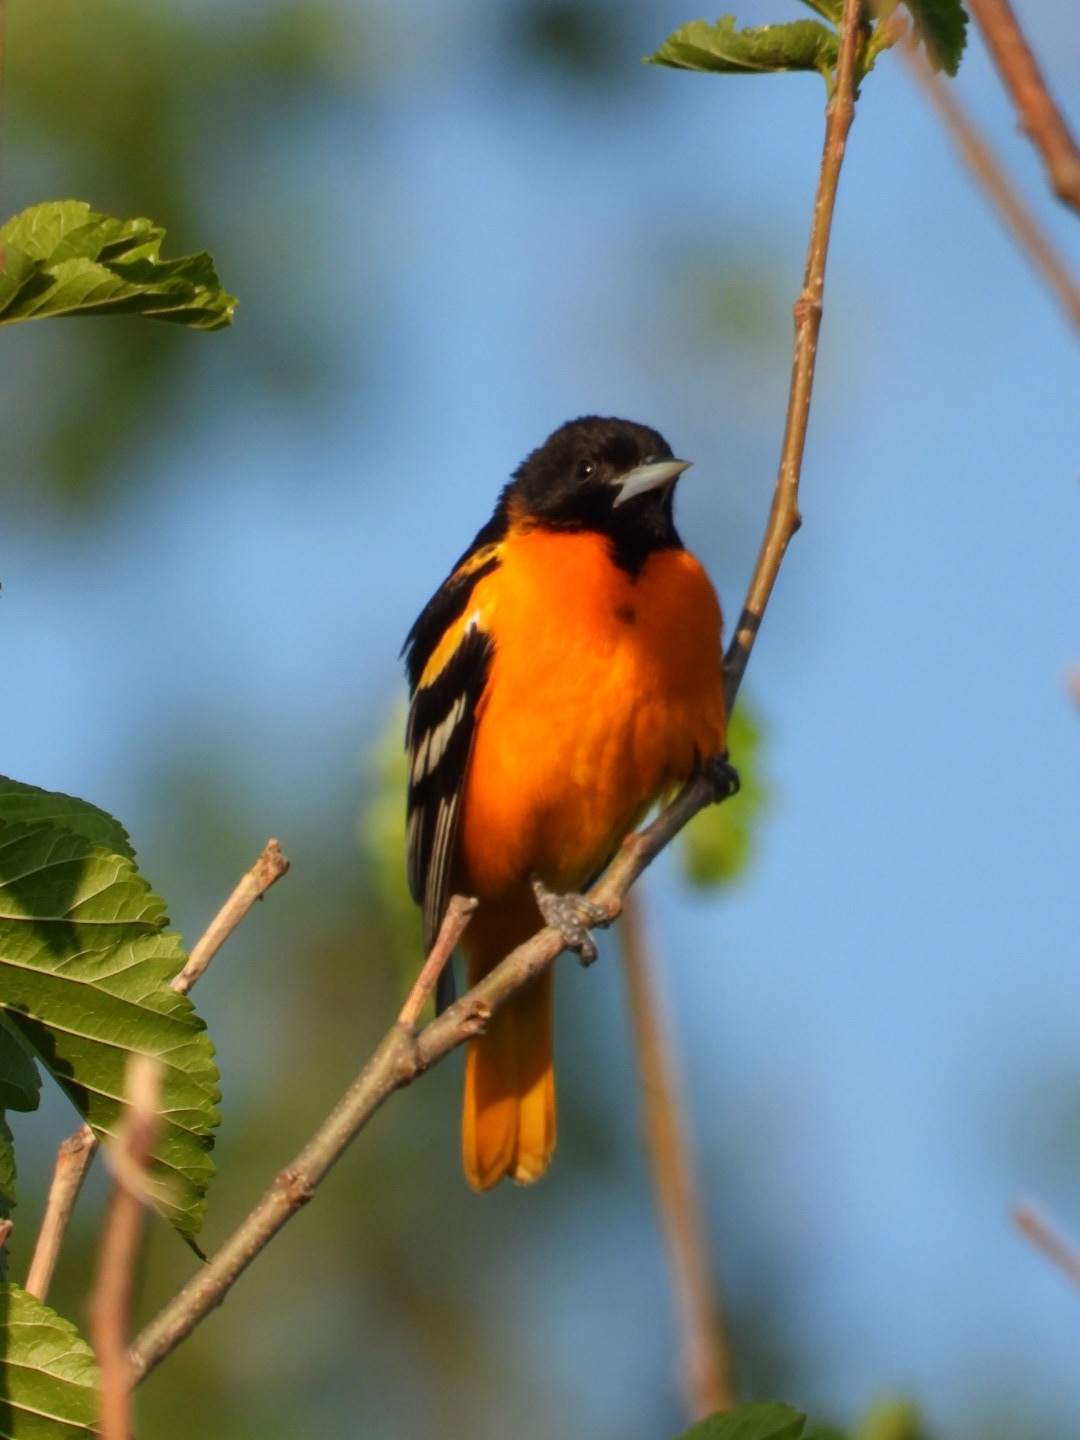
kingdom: Animalia
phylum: Chordata
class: Aves
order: Passeriformes
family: Icteridae
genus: Icterus
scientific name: Icterus galbula
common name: Baltimore oriole
